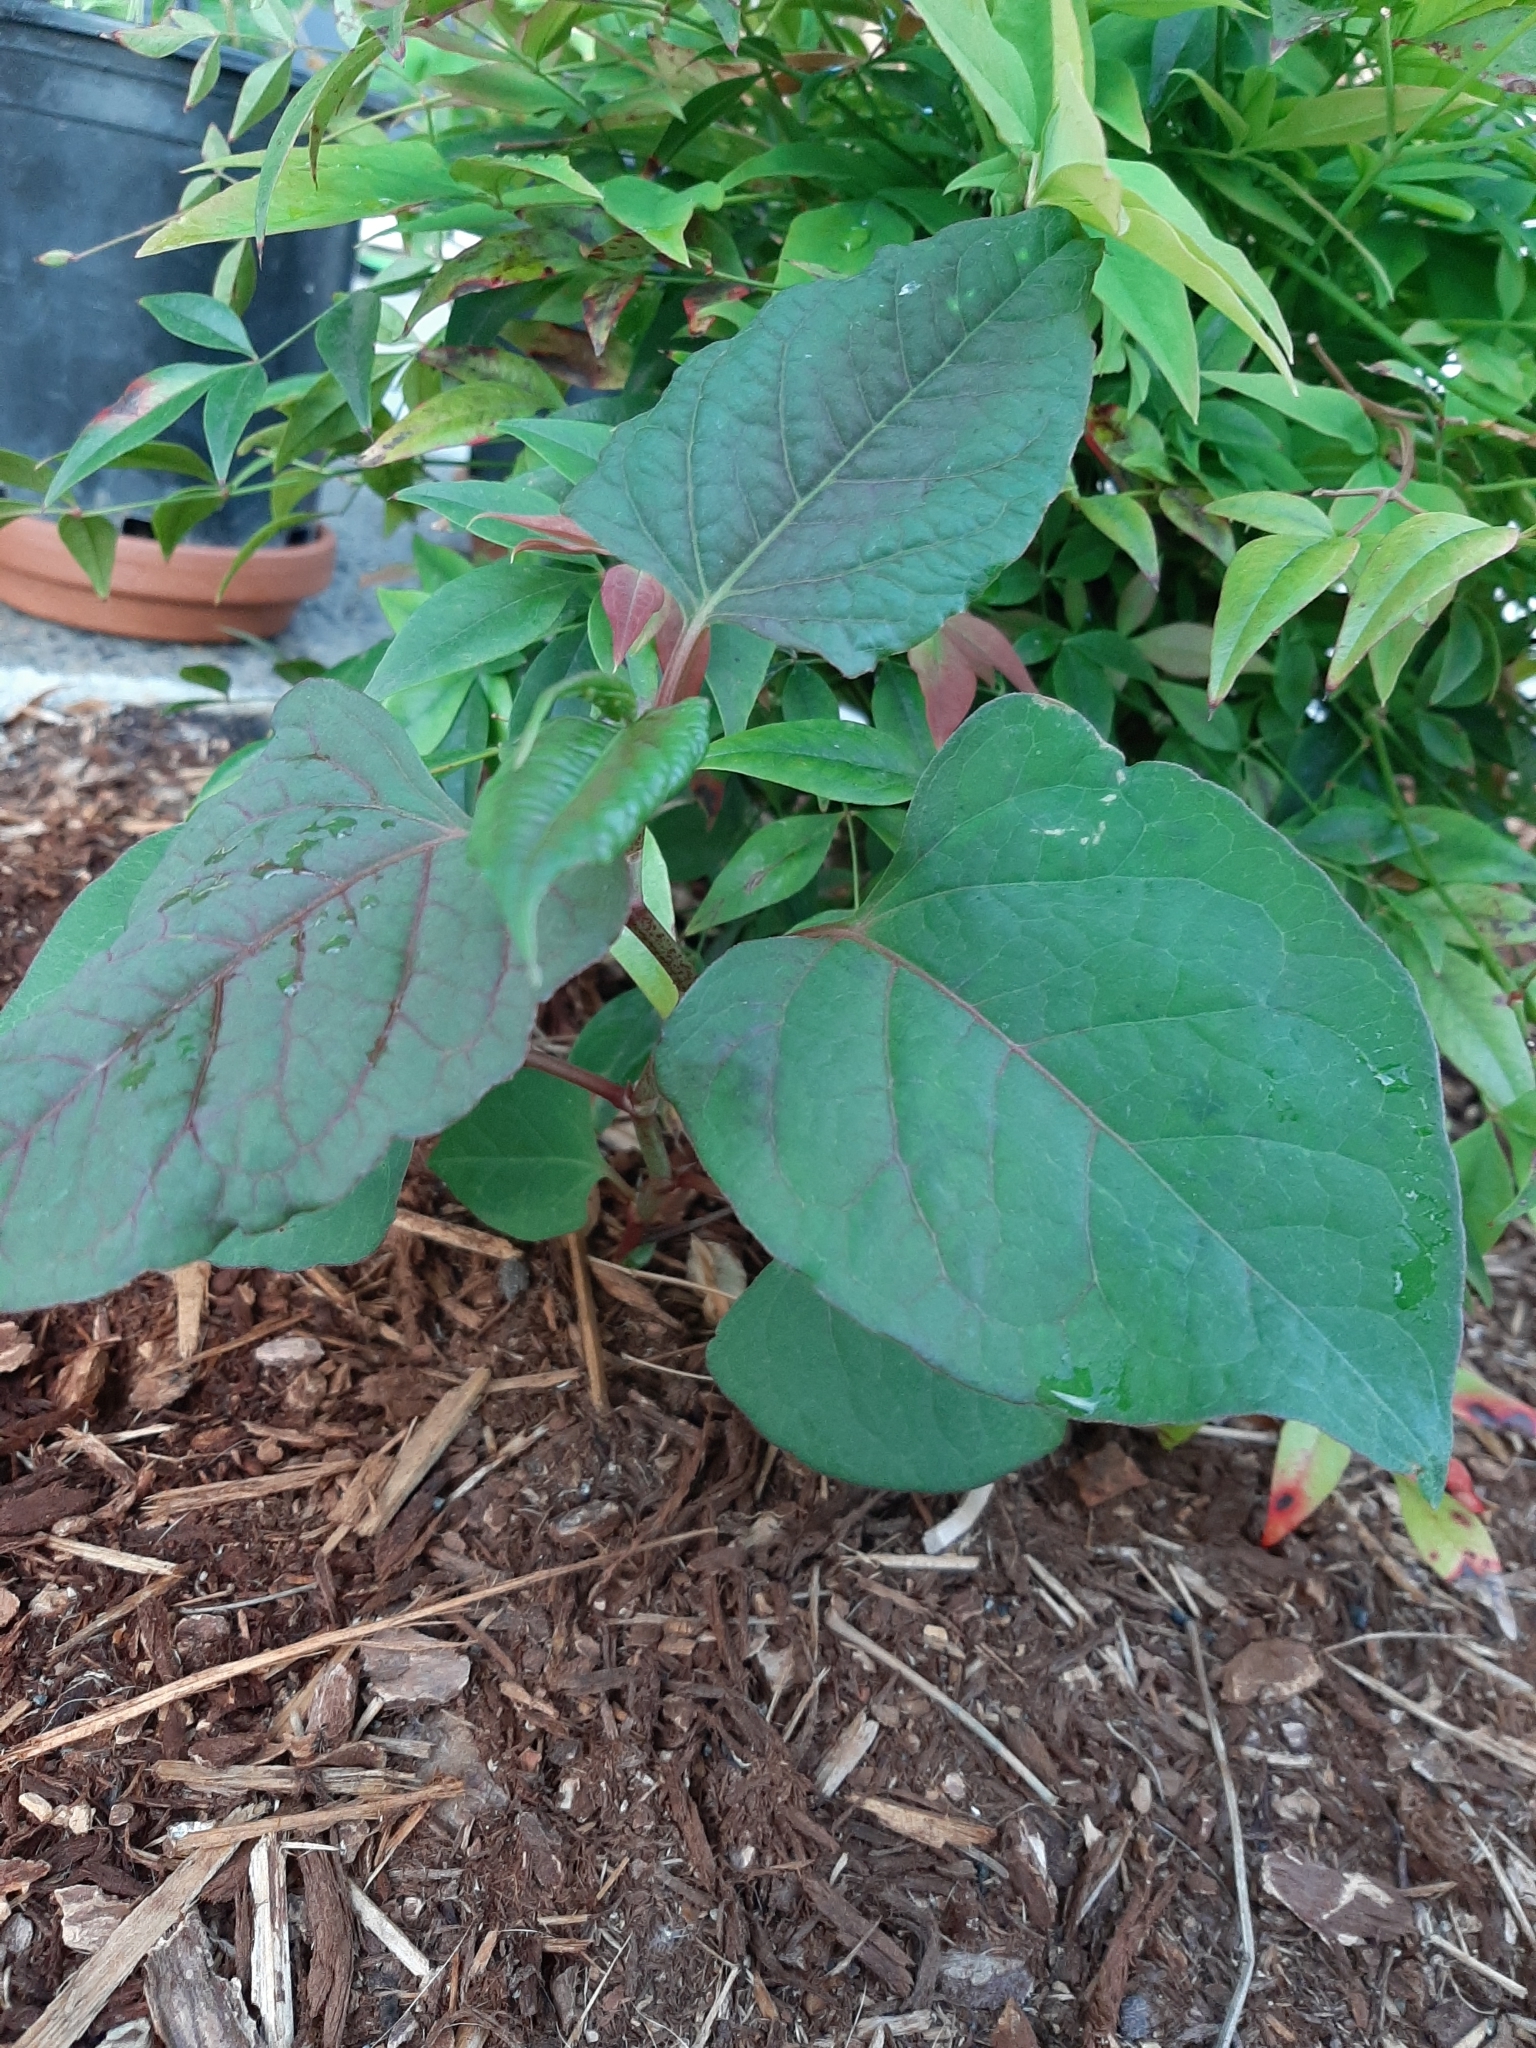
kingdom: Plantae
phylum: Tracheophyta
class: Magnoliopsida
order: Caryophyllales
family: Polygonaceae
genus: Reynoutria
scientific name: Reynoutria japonica
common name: Japanese knotweed
